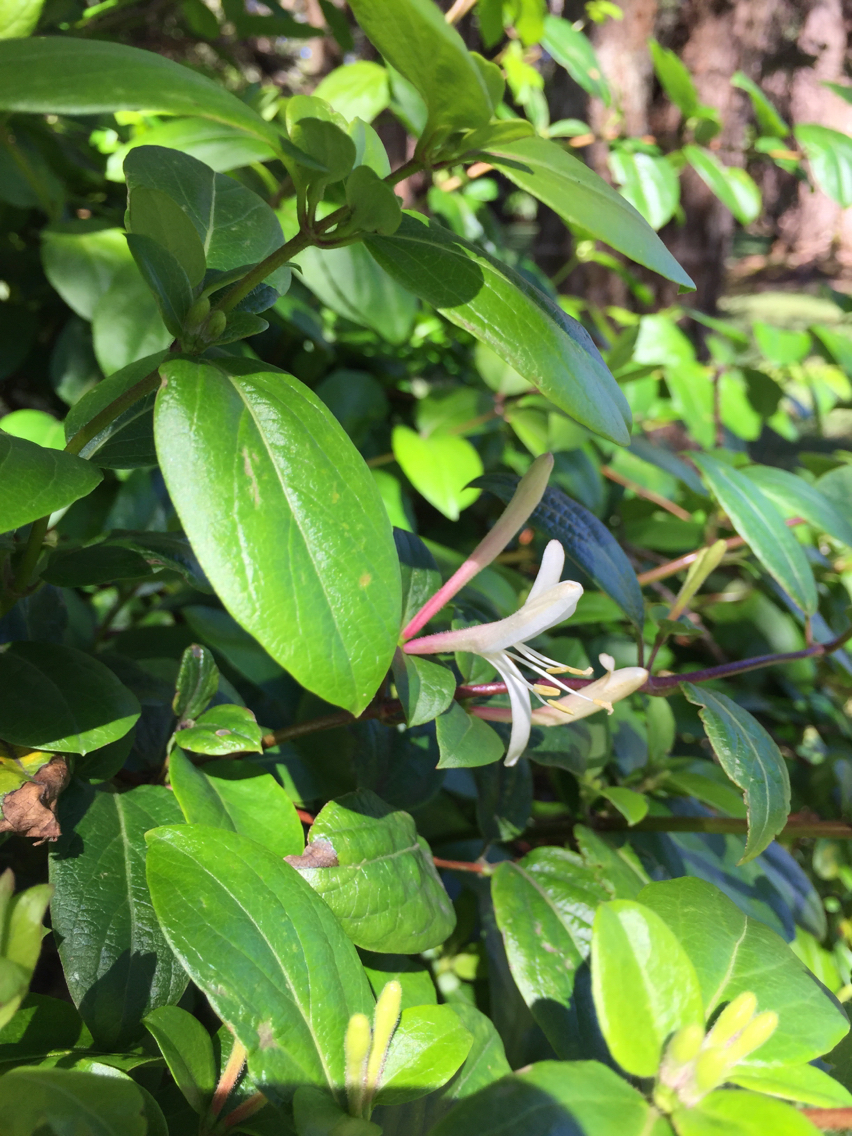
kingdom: Plantae
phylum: Tracheophyta
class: Magnoliopsida
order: Dipsacales
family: Caprifoliaceae
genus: Lonicera
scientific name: Lonicera japonica
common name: Japanese honeysuckle
